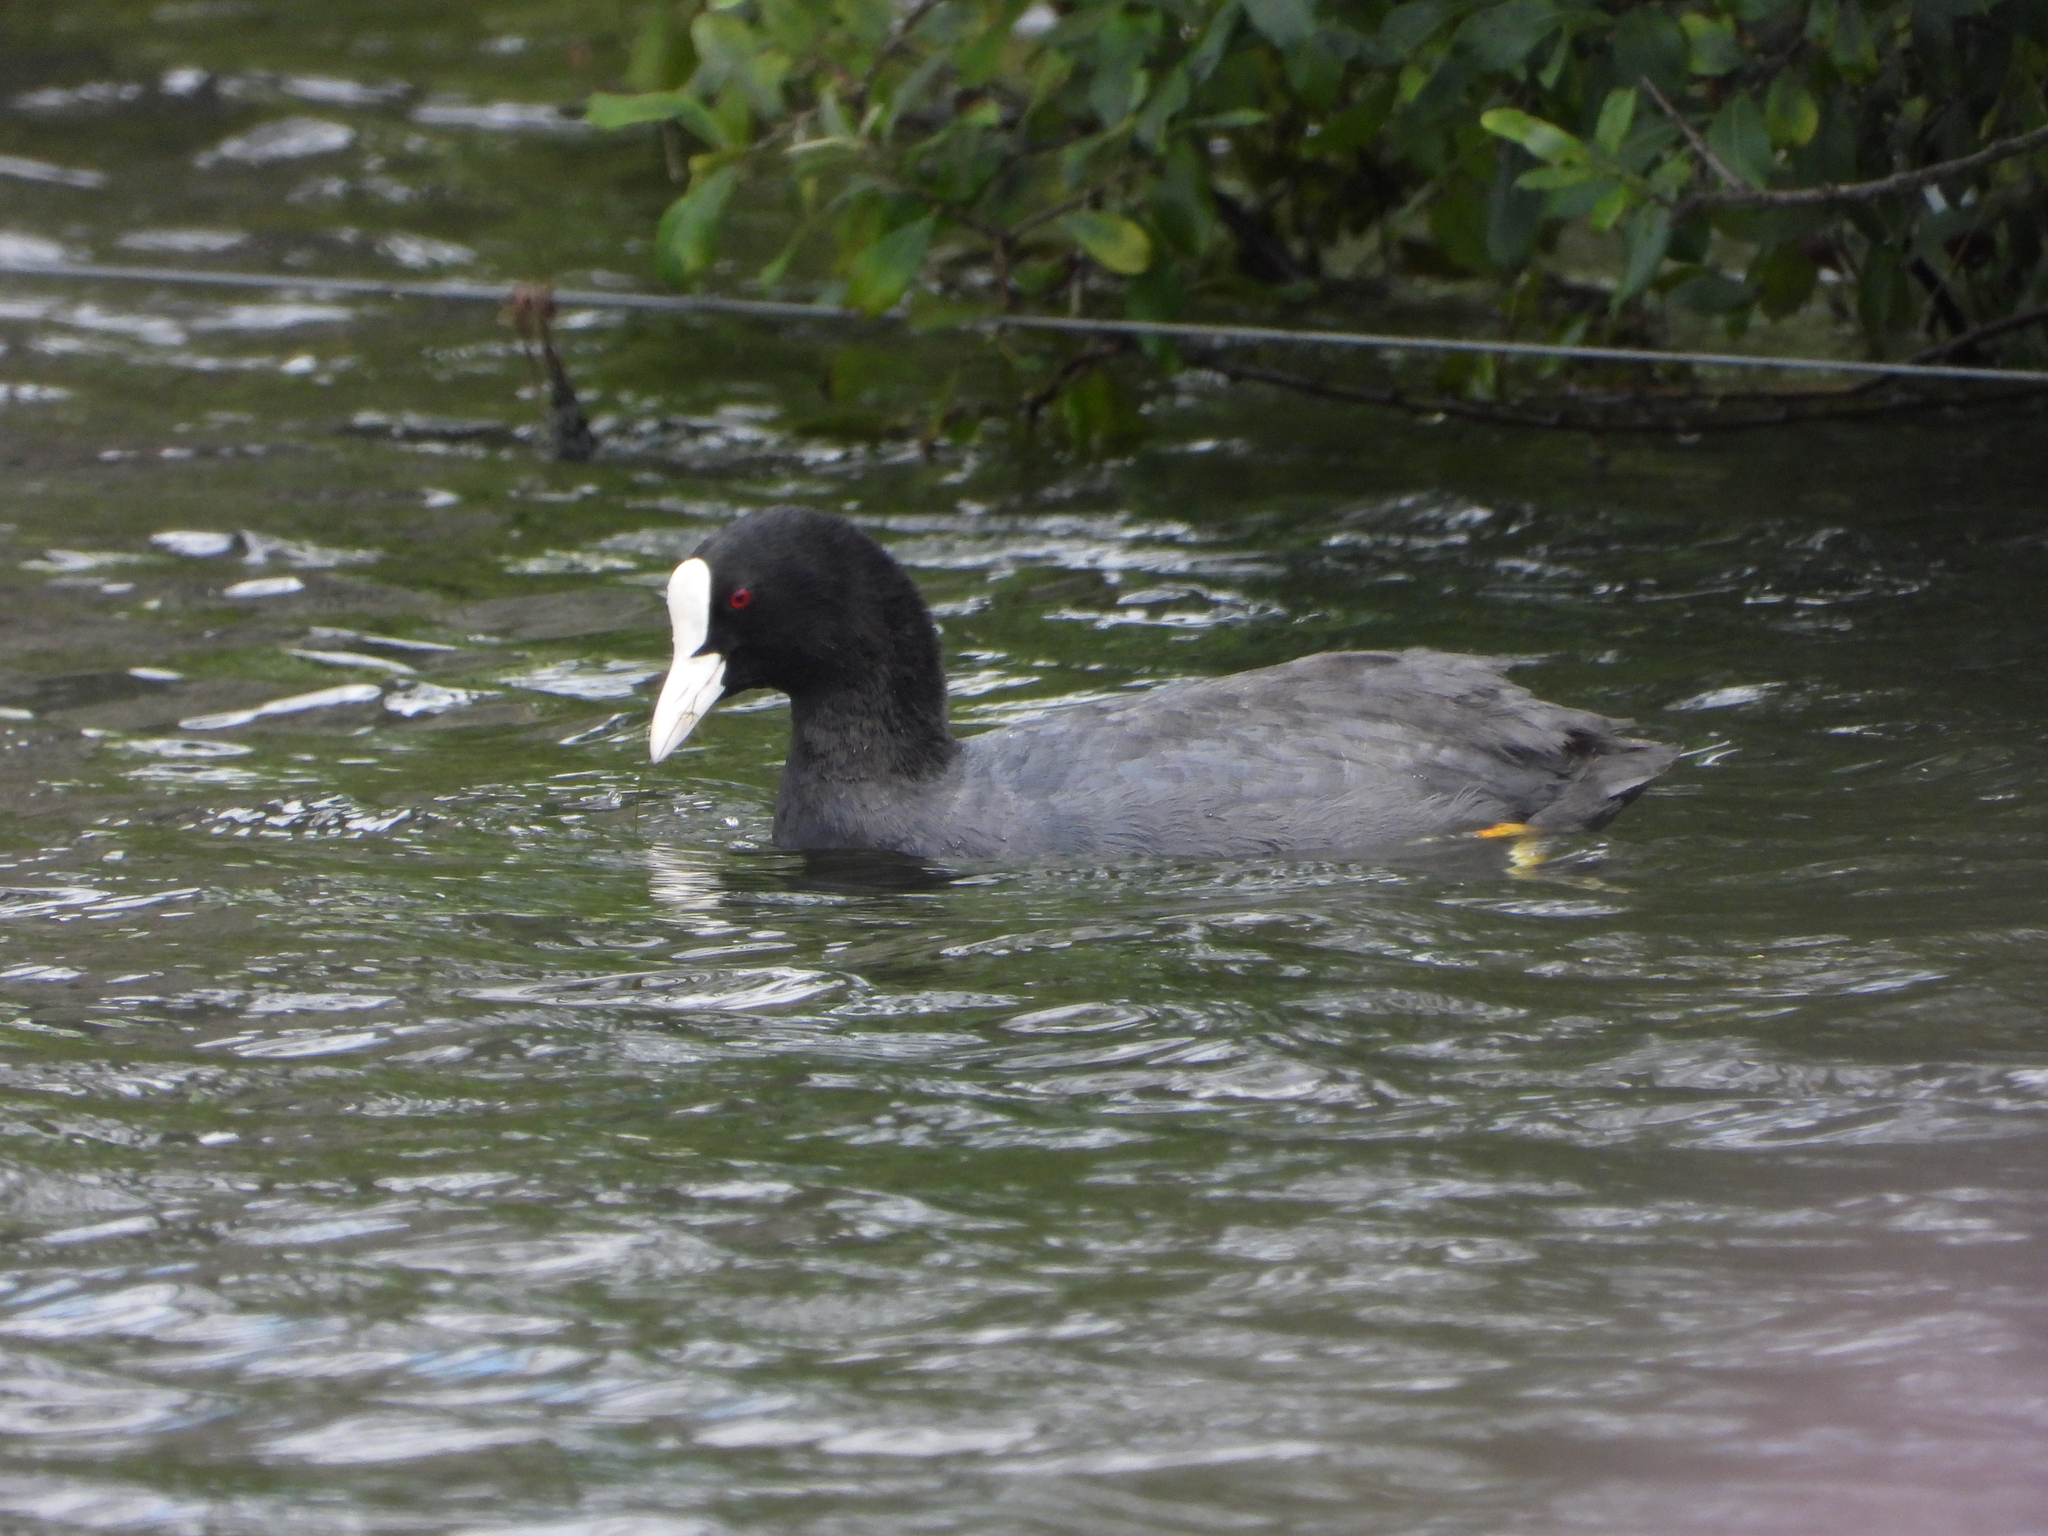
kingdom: Animalia
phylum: Chordata
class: Aves
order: Gruiformes
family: Rallidae
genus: Fulica
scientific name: Fulica atra
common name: Eurasian coot
